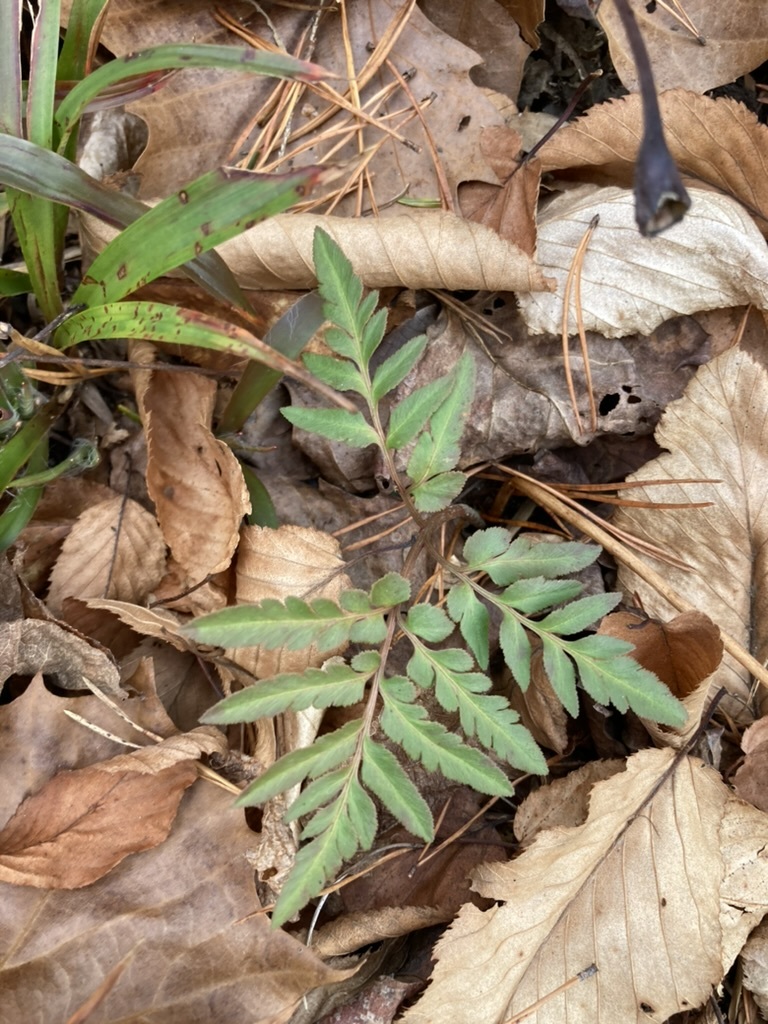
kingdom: Plantae
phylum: Tracheophyta
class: Polypodiopsida
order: Ophioglossales
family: Ophioglossaceae
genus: Sceptridium
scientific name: Sceptridium dissectum
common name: Cut-leaved grapefern
